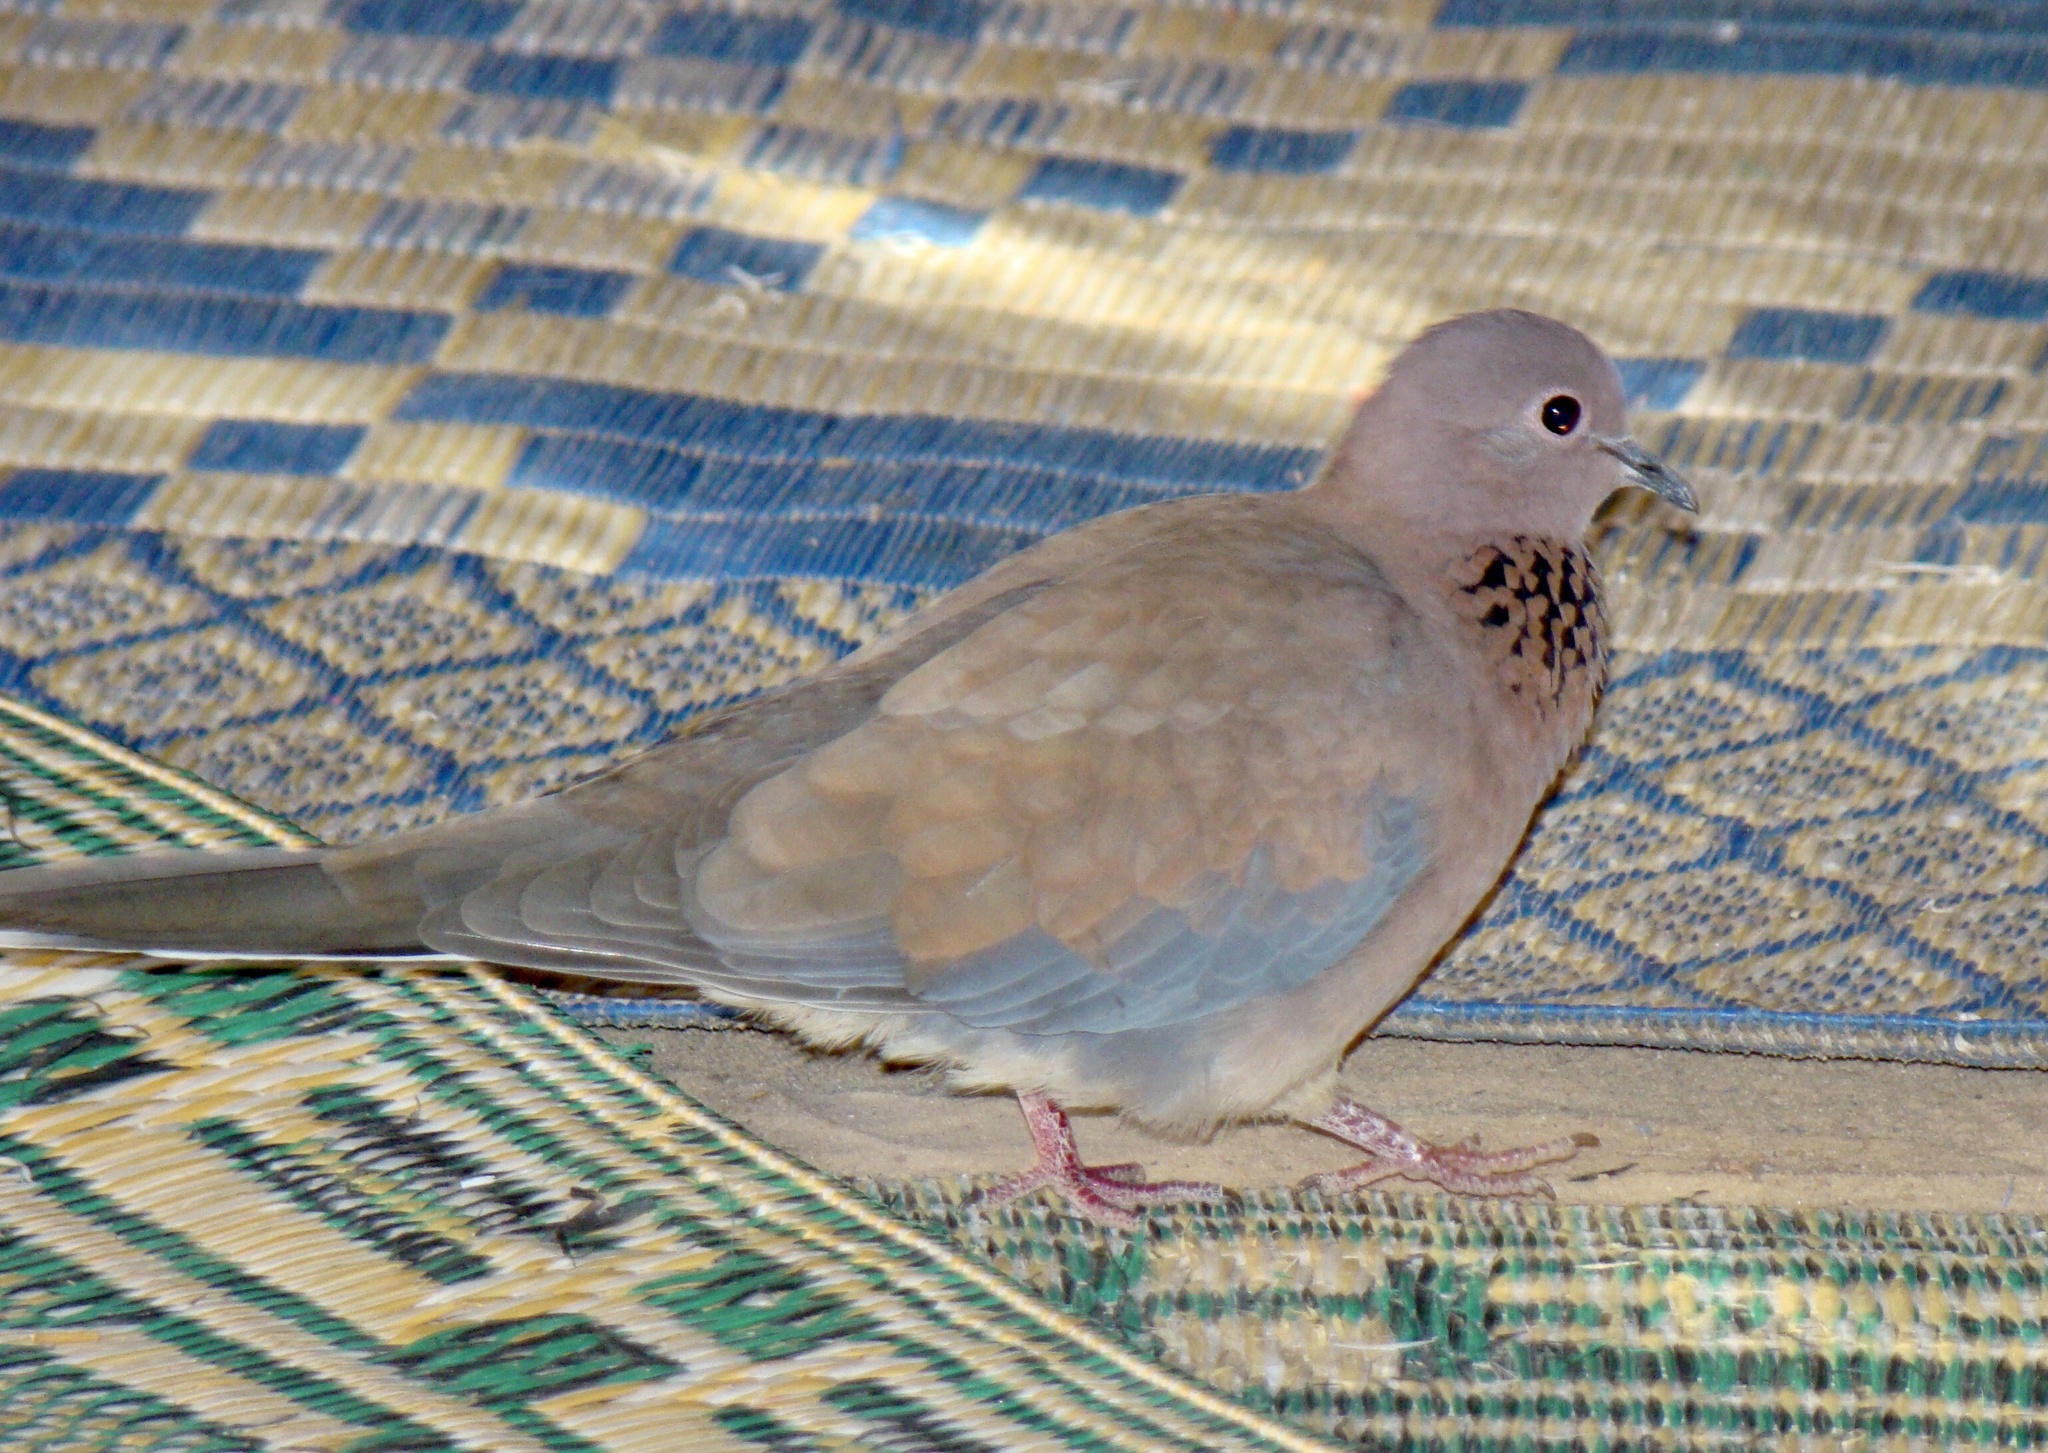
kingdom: Animalia
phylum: Chordata
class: Aves
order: Columbiformes
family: Columbidae
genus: Spilopelia
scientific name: Spilopelia senegalensis
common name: Laughing dove
